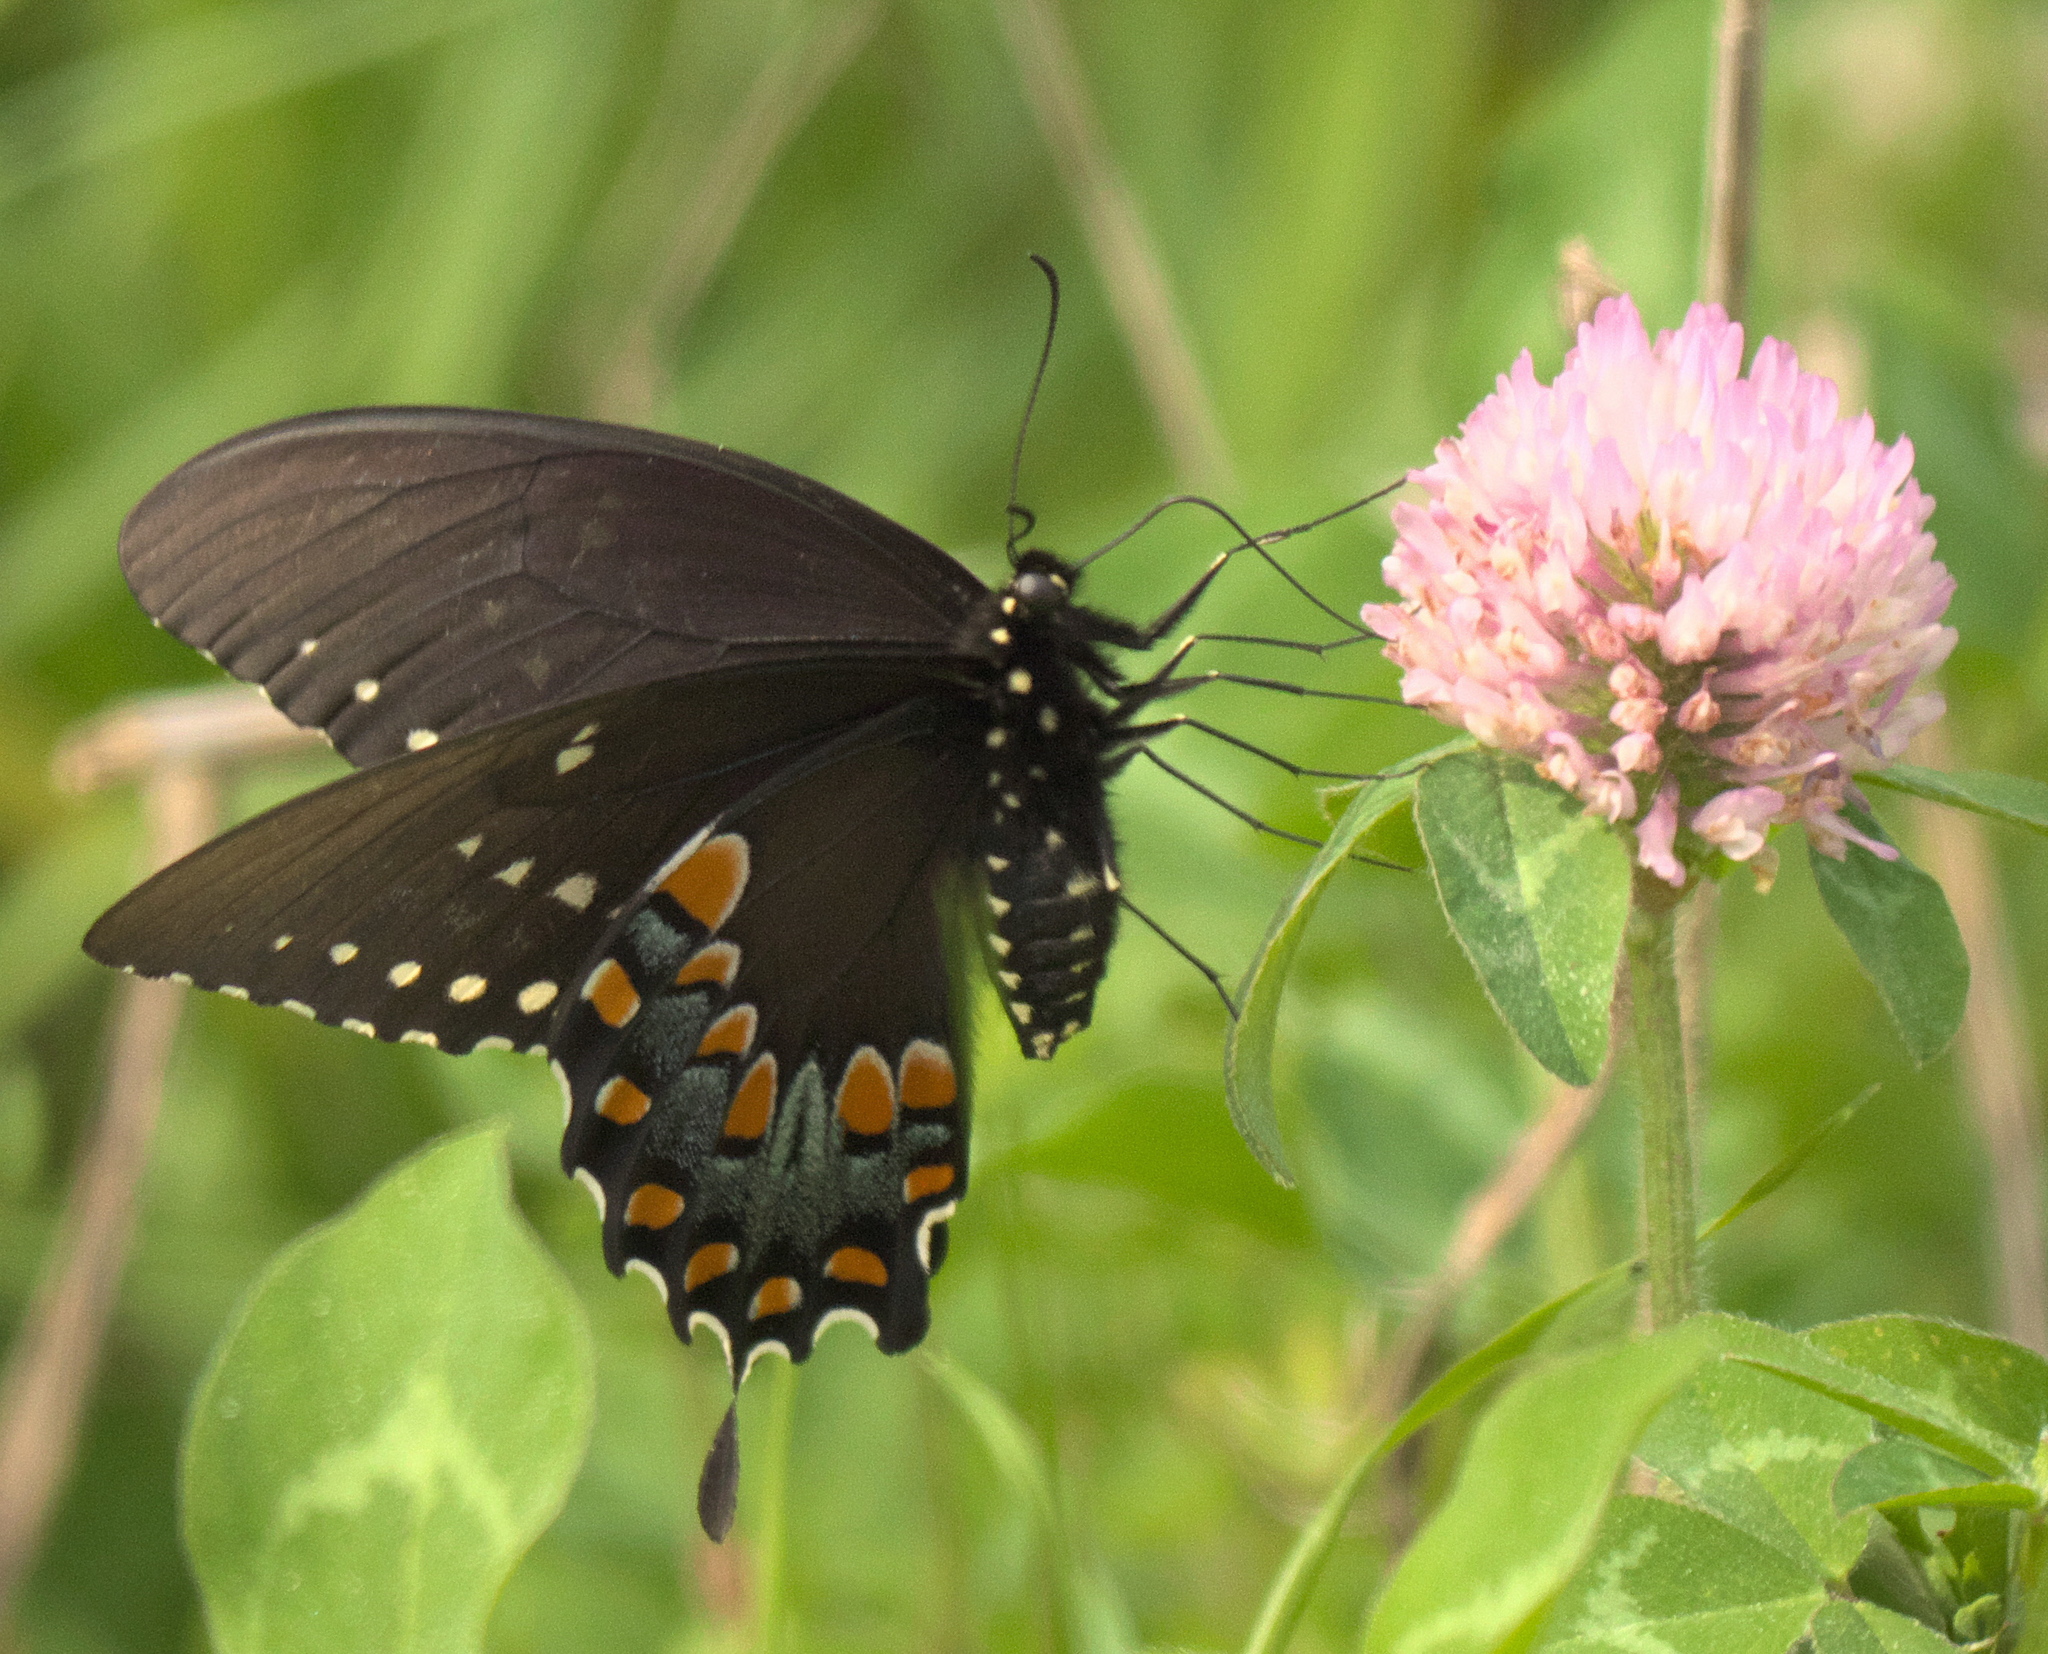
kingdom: Animalia
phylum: Arthropoda
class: Insecta
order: Lepidoptera
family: Papilionidae
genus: Papilio
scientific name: Papilio troilus
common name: Spicebush swallowtail
